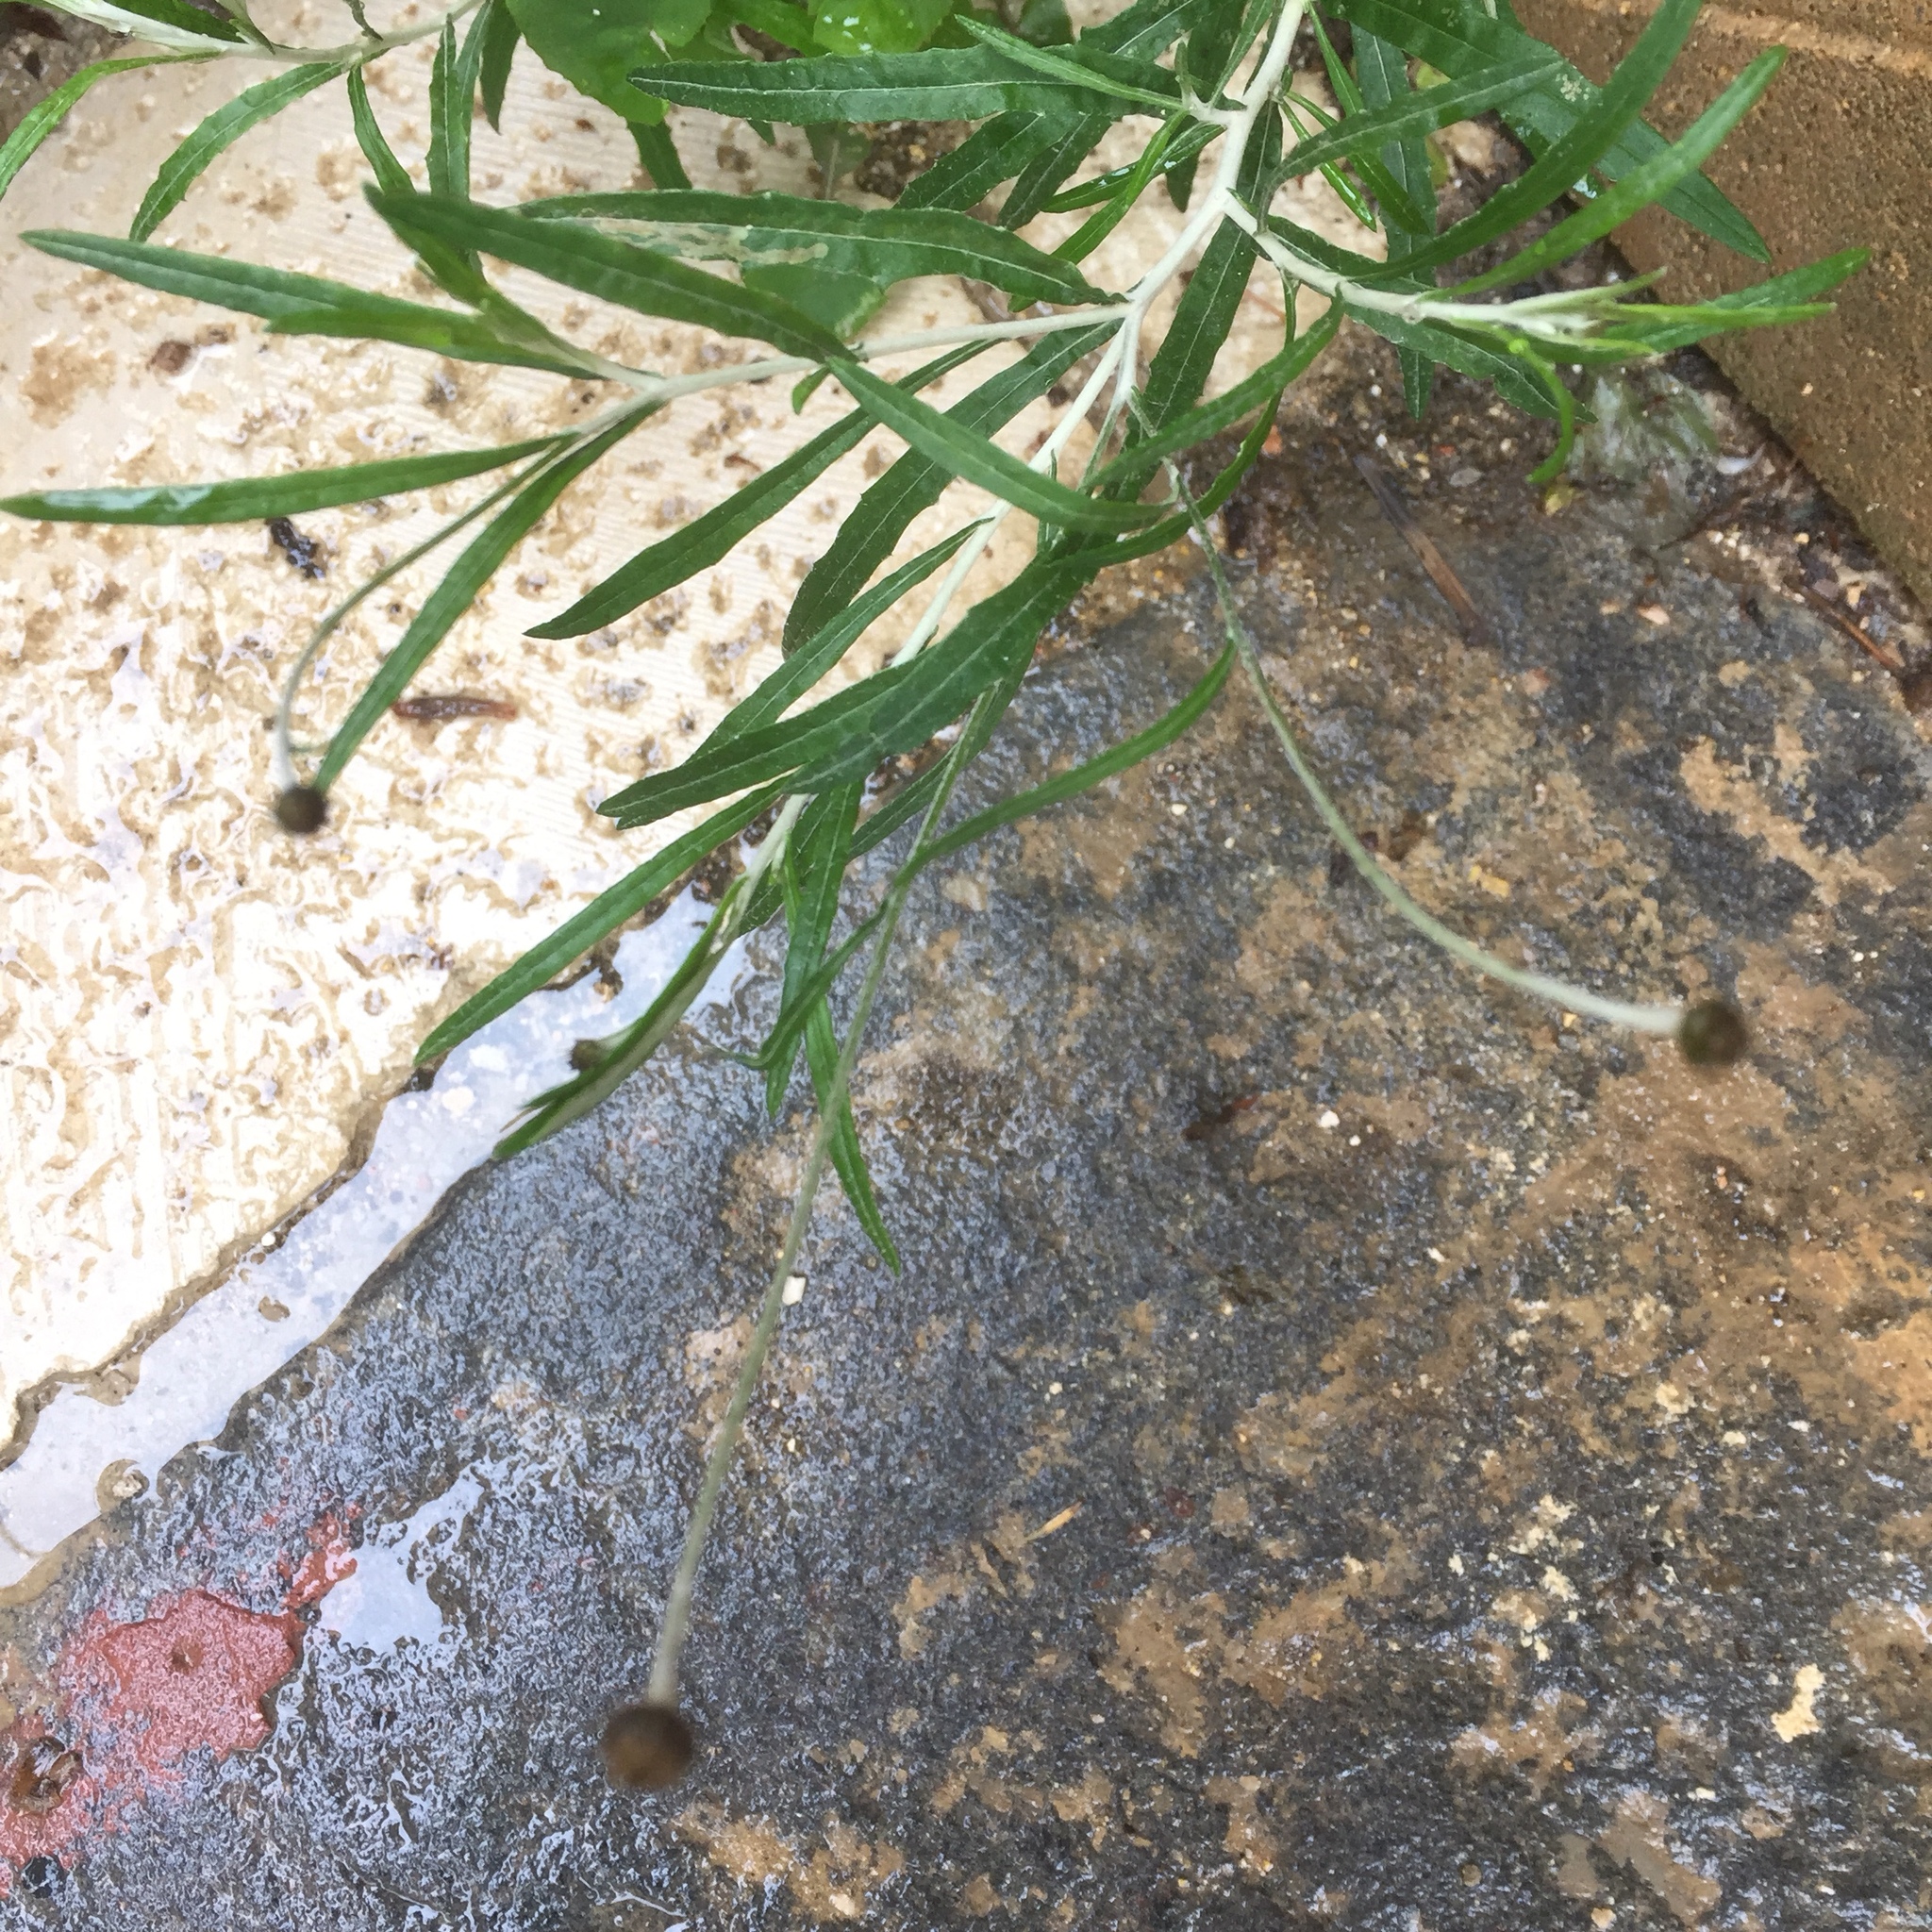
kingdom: Plantae
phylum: Tracheophyta
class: Magnoliopsida
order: Asterales
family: Asteraceae
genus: Phagnalon
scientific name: Phagnalon saxatile
